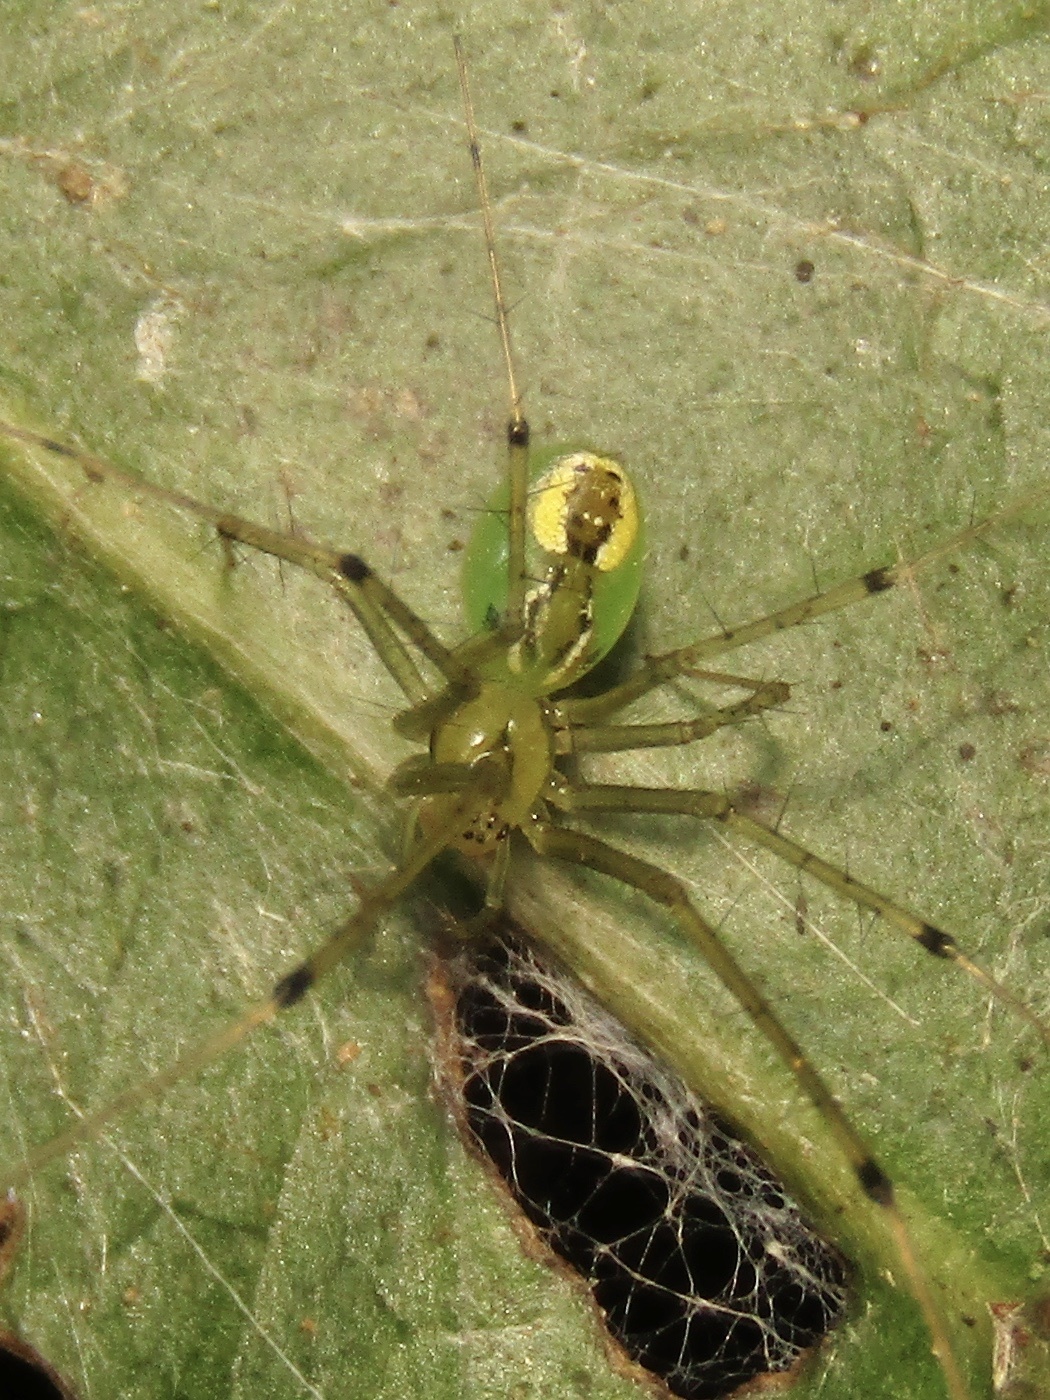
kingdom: Animalia
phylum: Arthropoda
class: Arachnida
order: Araneae
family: Linyphiidae
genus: Laetesia
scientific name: Laetesia raveni
